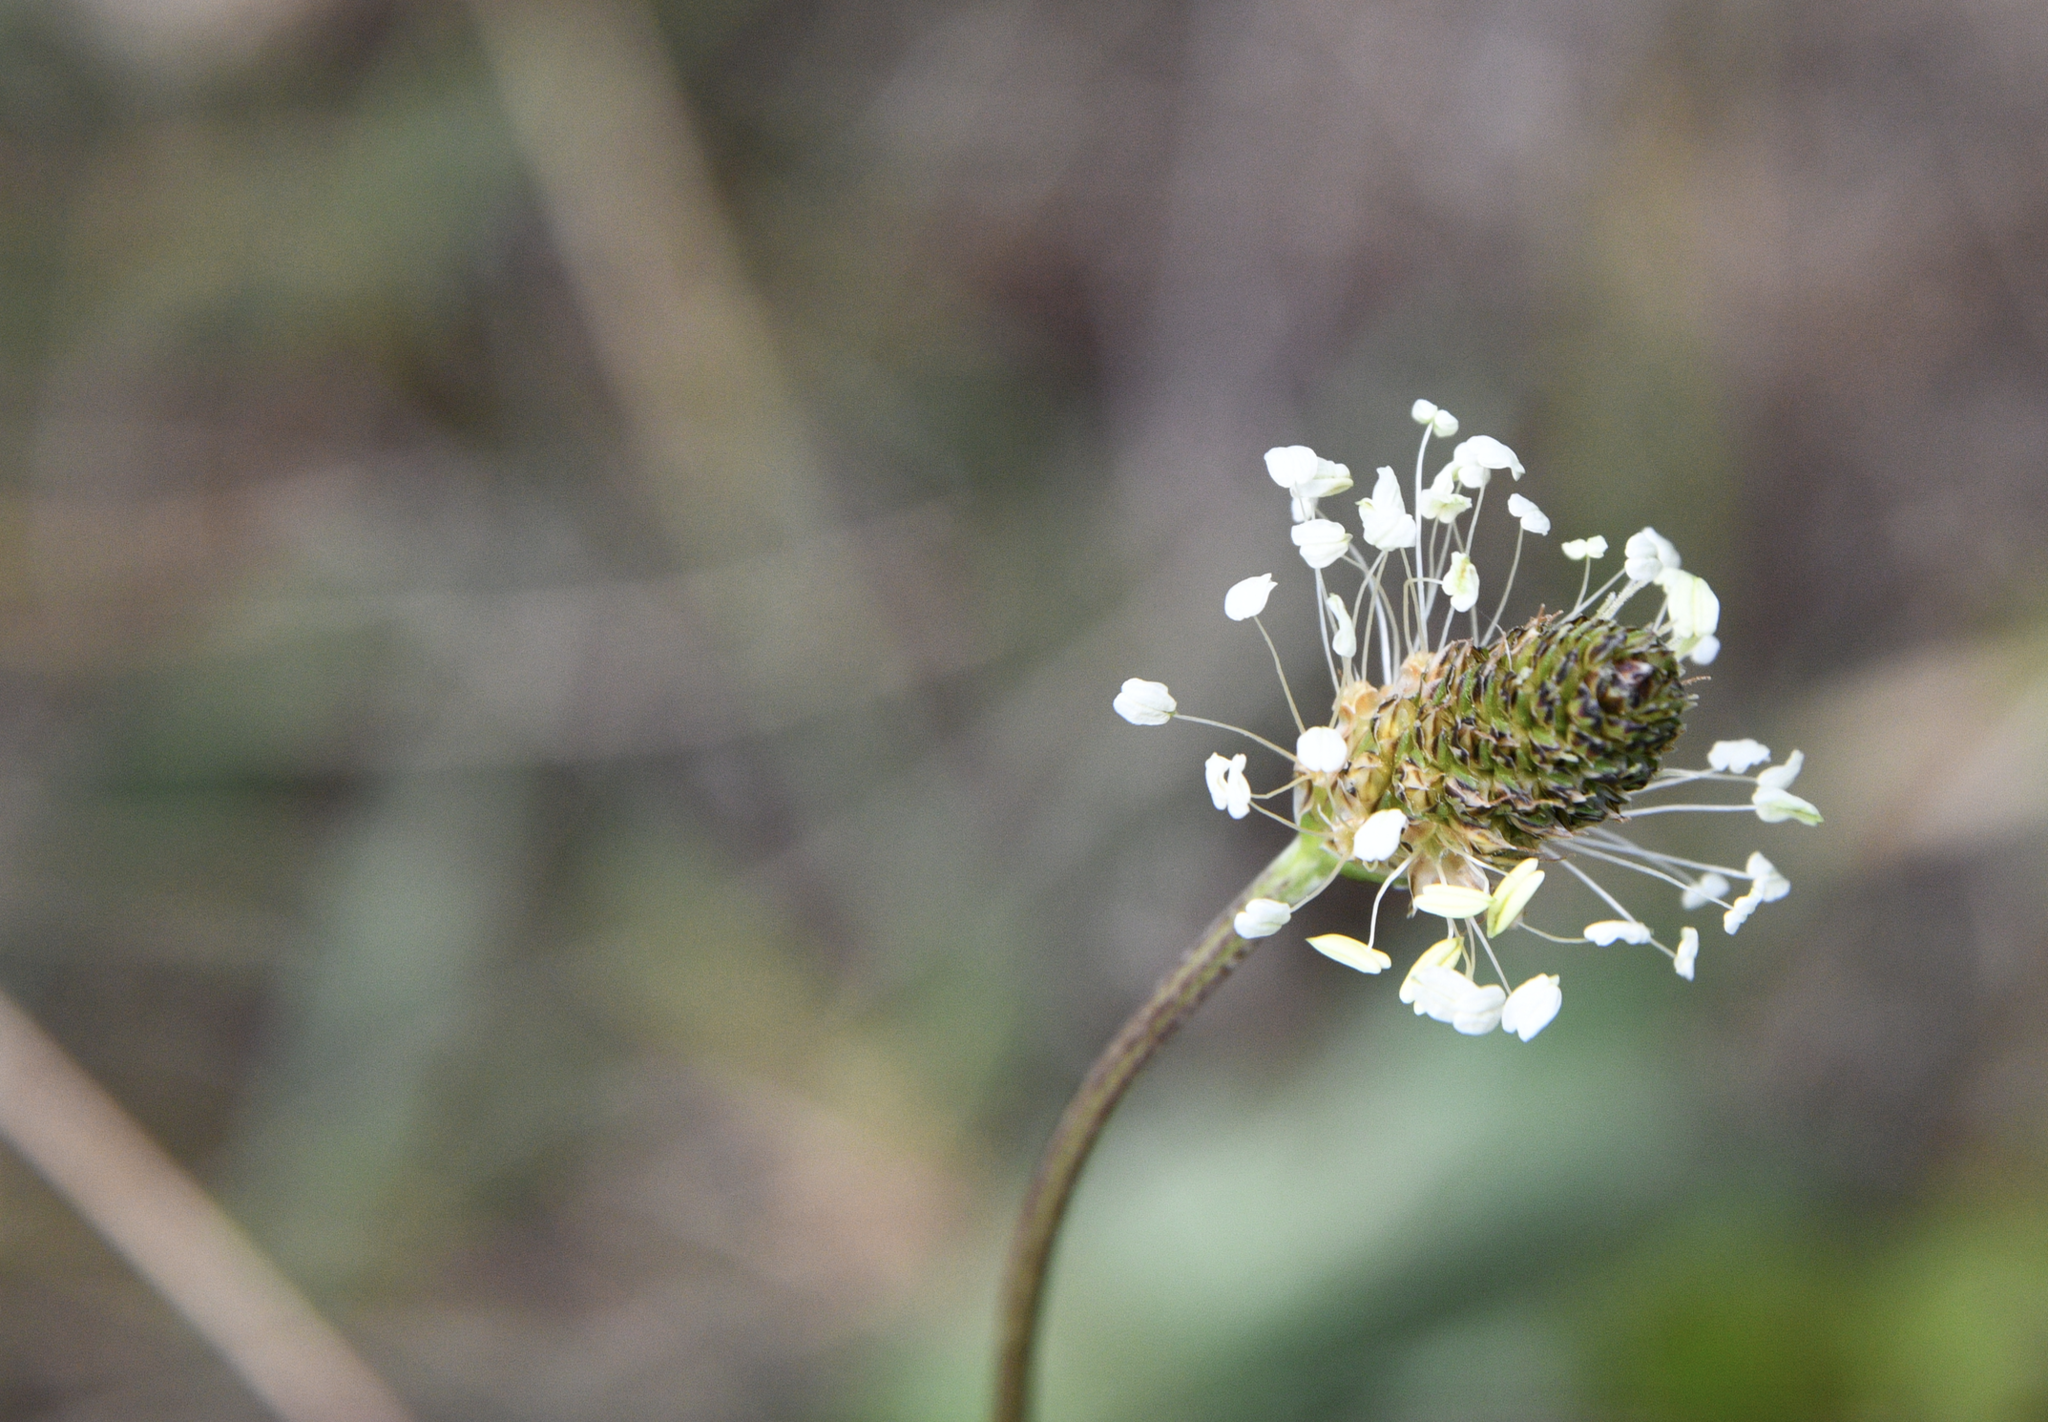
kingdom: Plantae
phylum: Tracheophyta
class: Magnoliopsida
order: Lamiales
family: Plantaginaceae
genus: Plantago
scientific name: Plantago lanceolata
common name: Ribwort plantain
